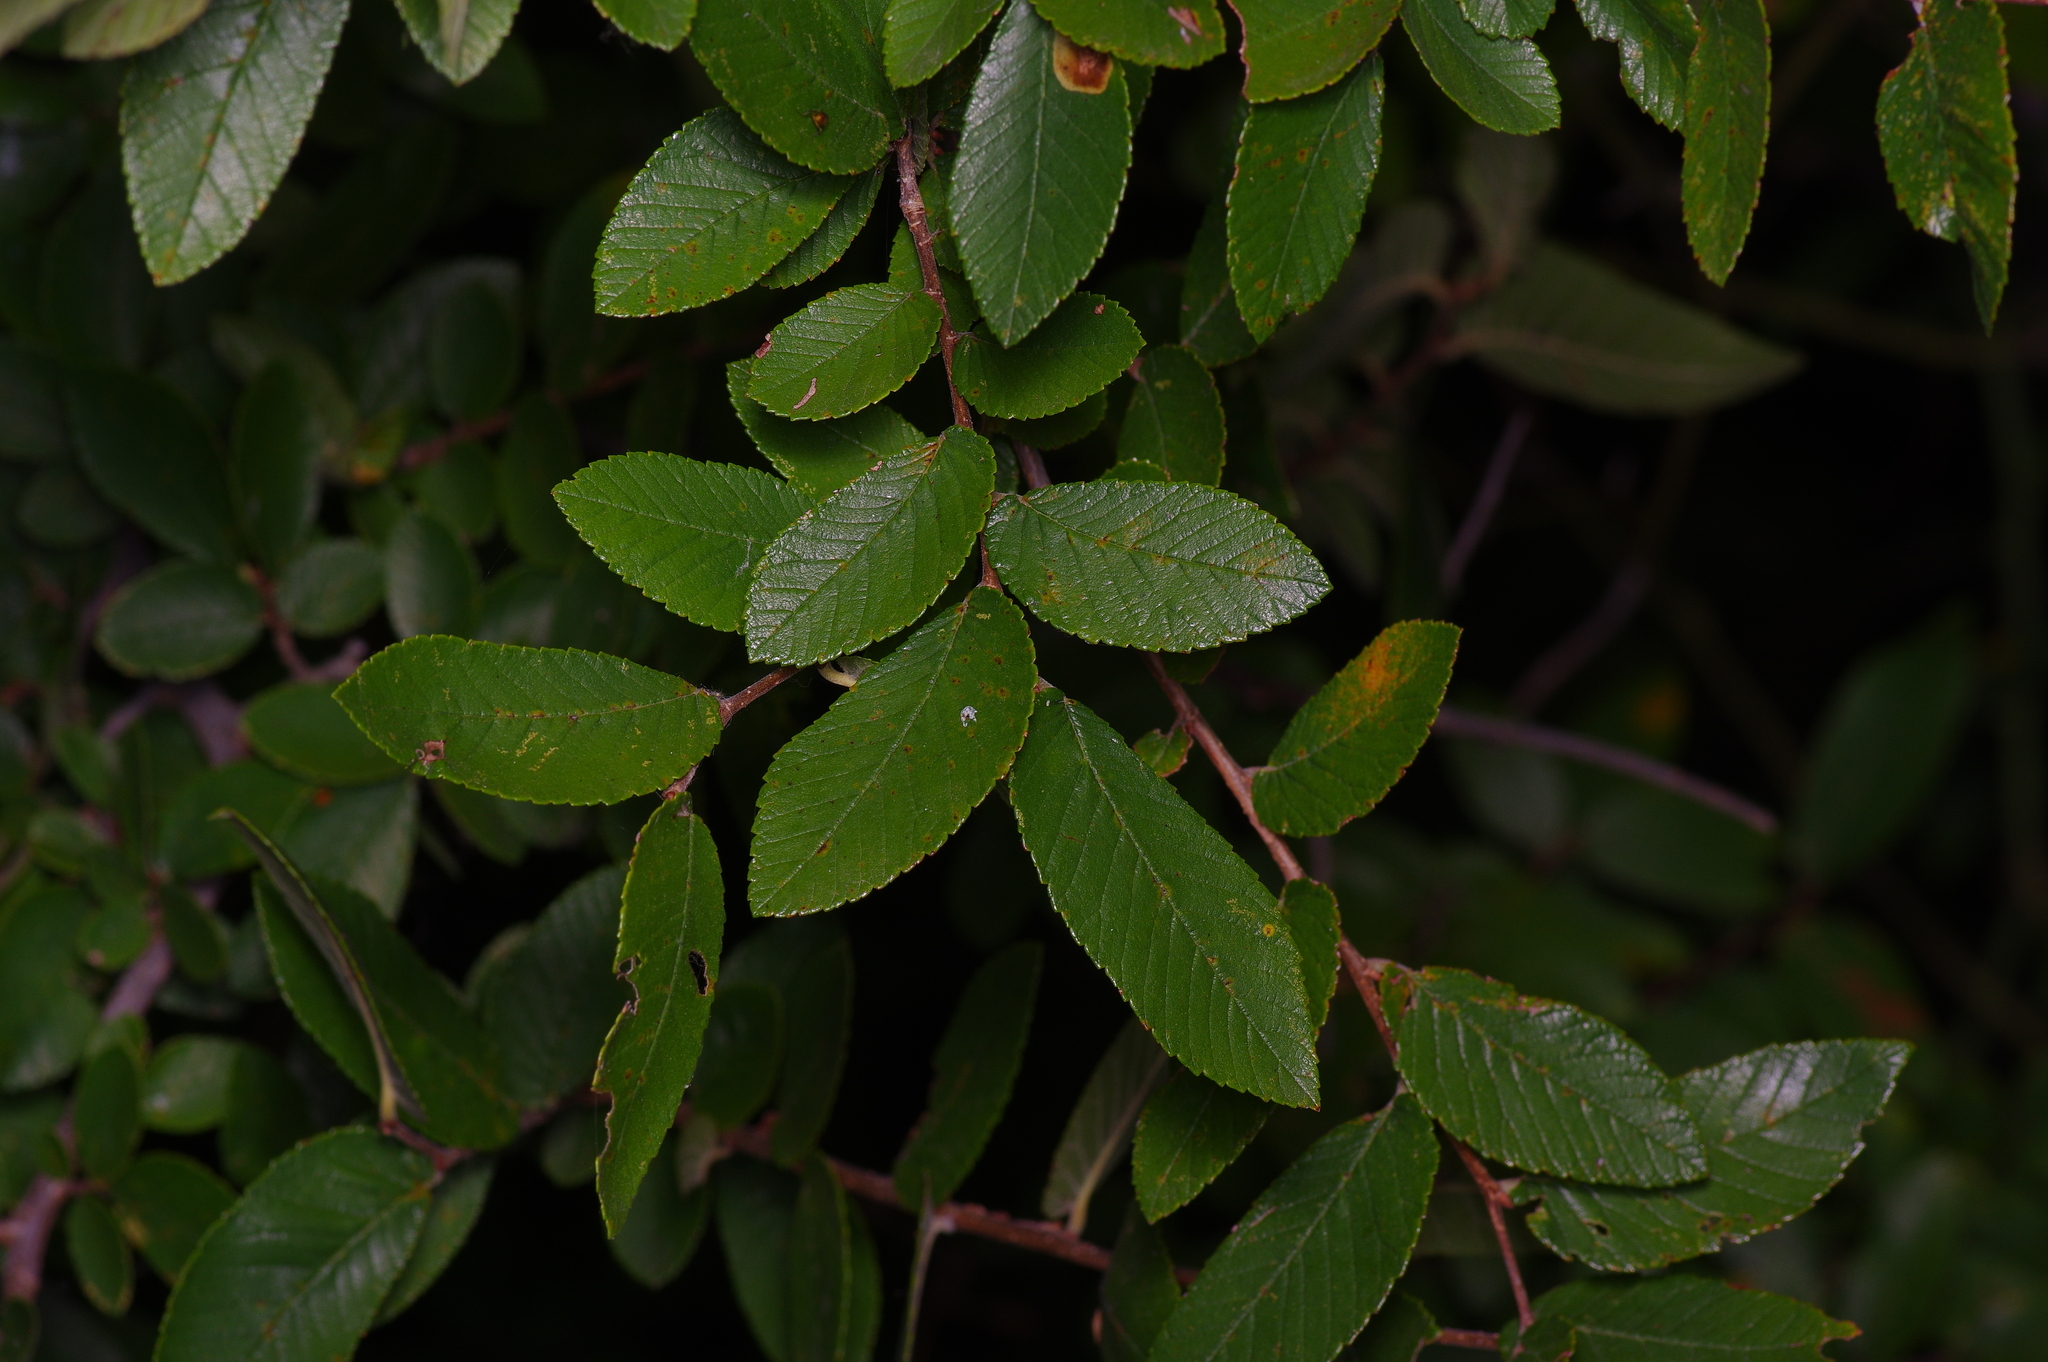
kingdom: Plantae
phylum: Tracheophyta
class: Magnoliopsida
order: Rosales
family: Ulmaceae
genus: Ulmus
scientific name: Ulmus crassifolia
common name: Basket elm
